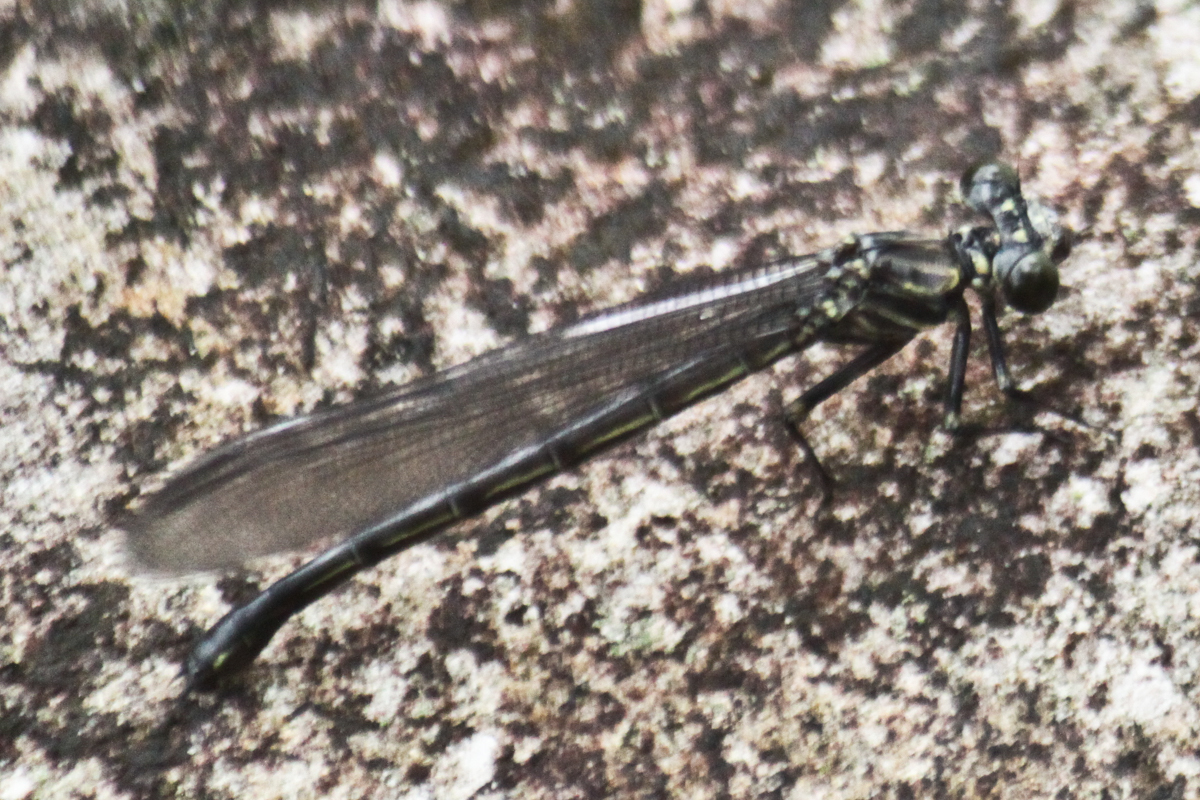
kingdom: Animalia
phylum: Arthropoda
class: Insecta
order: Odonata
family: Euphaeidae
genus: Dysphaea
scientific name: Dysphaea gloriosa
